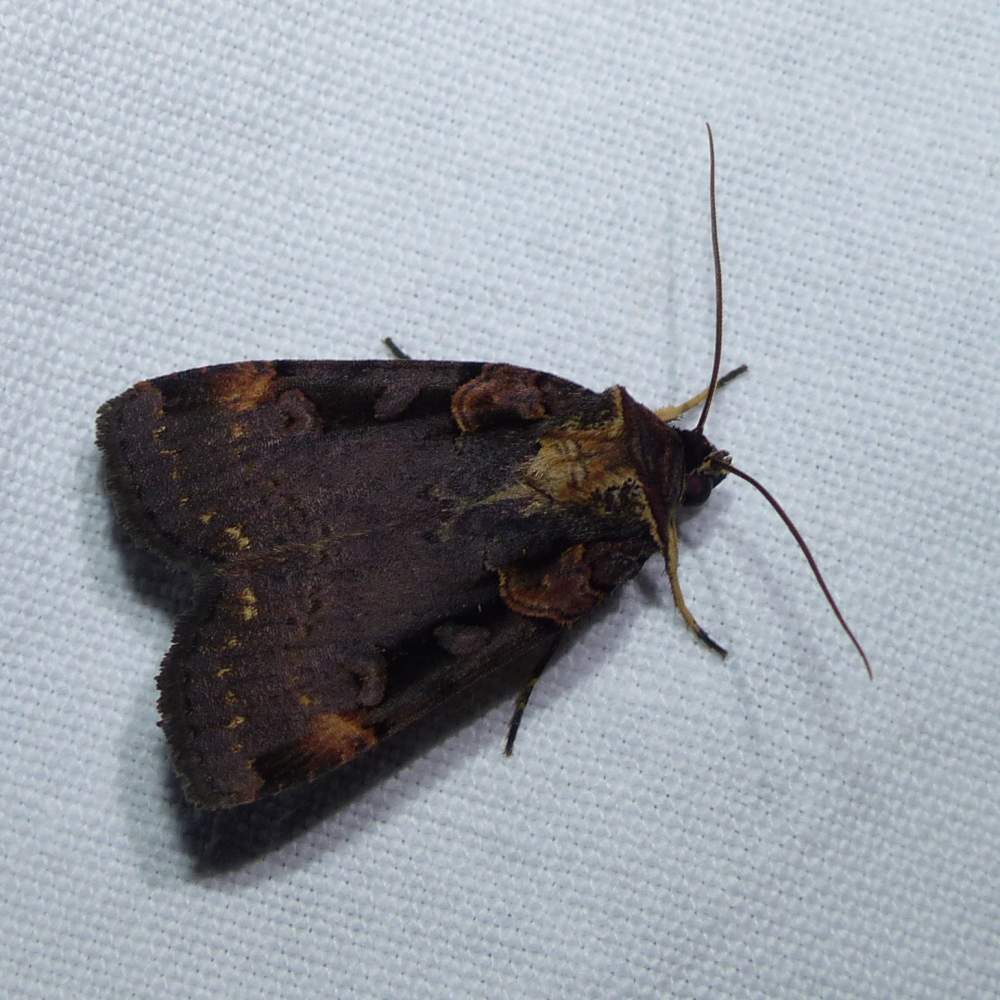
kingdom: Animalia
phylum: Arthropoda
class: Insecta
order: Lepidoptera
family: Noctuidae
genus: Pseudohermonassa
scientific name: Pseudohermonassa bicarnea
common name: Pink spotted dart
